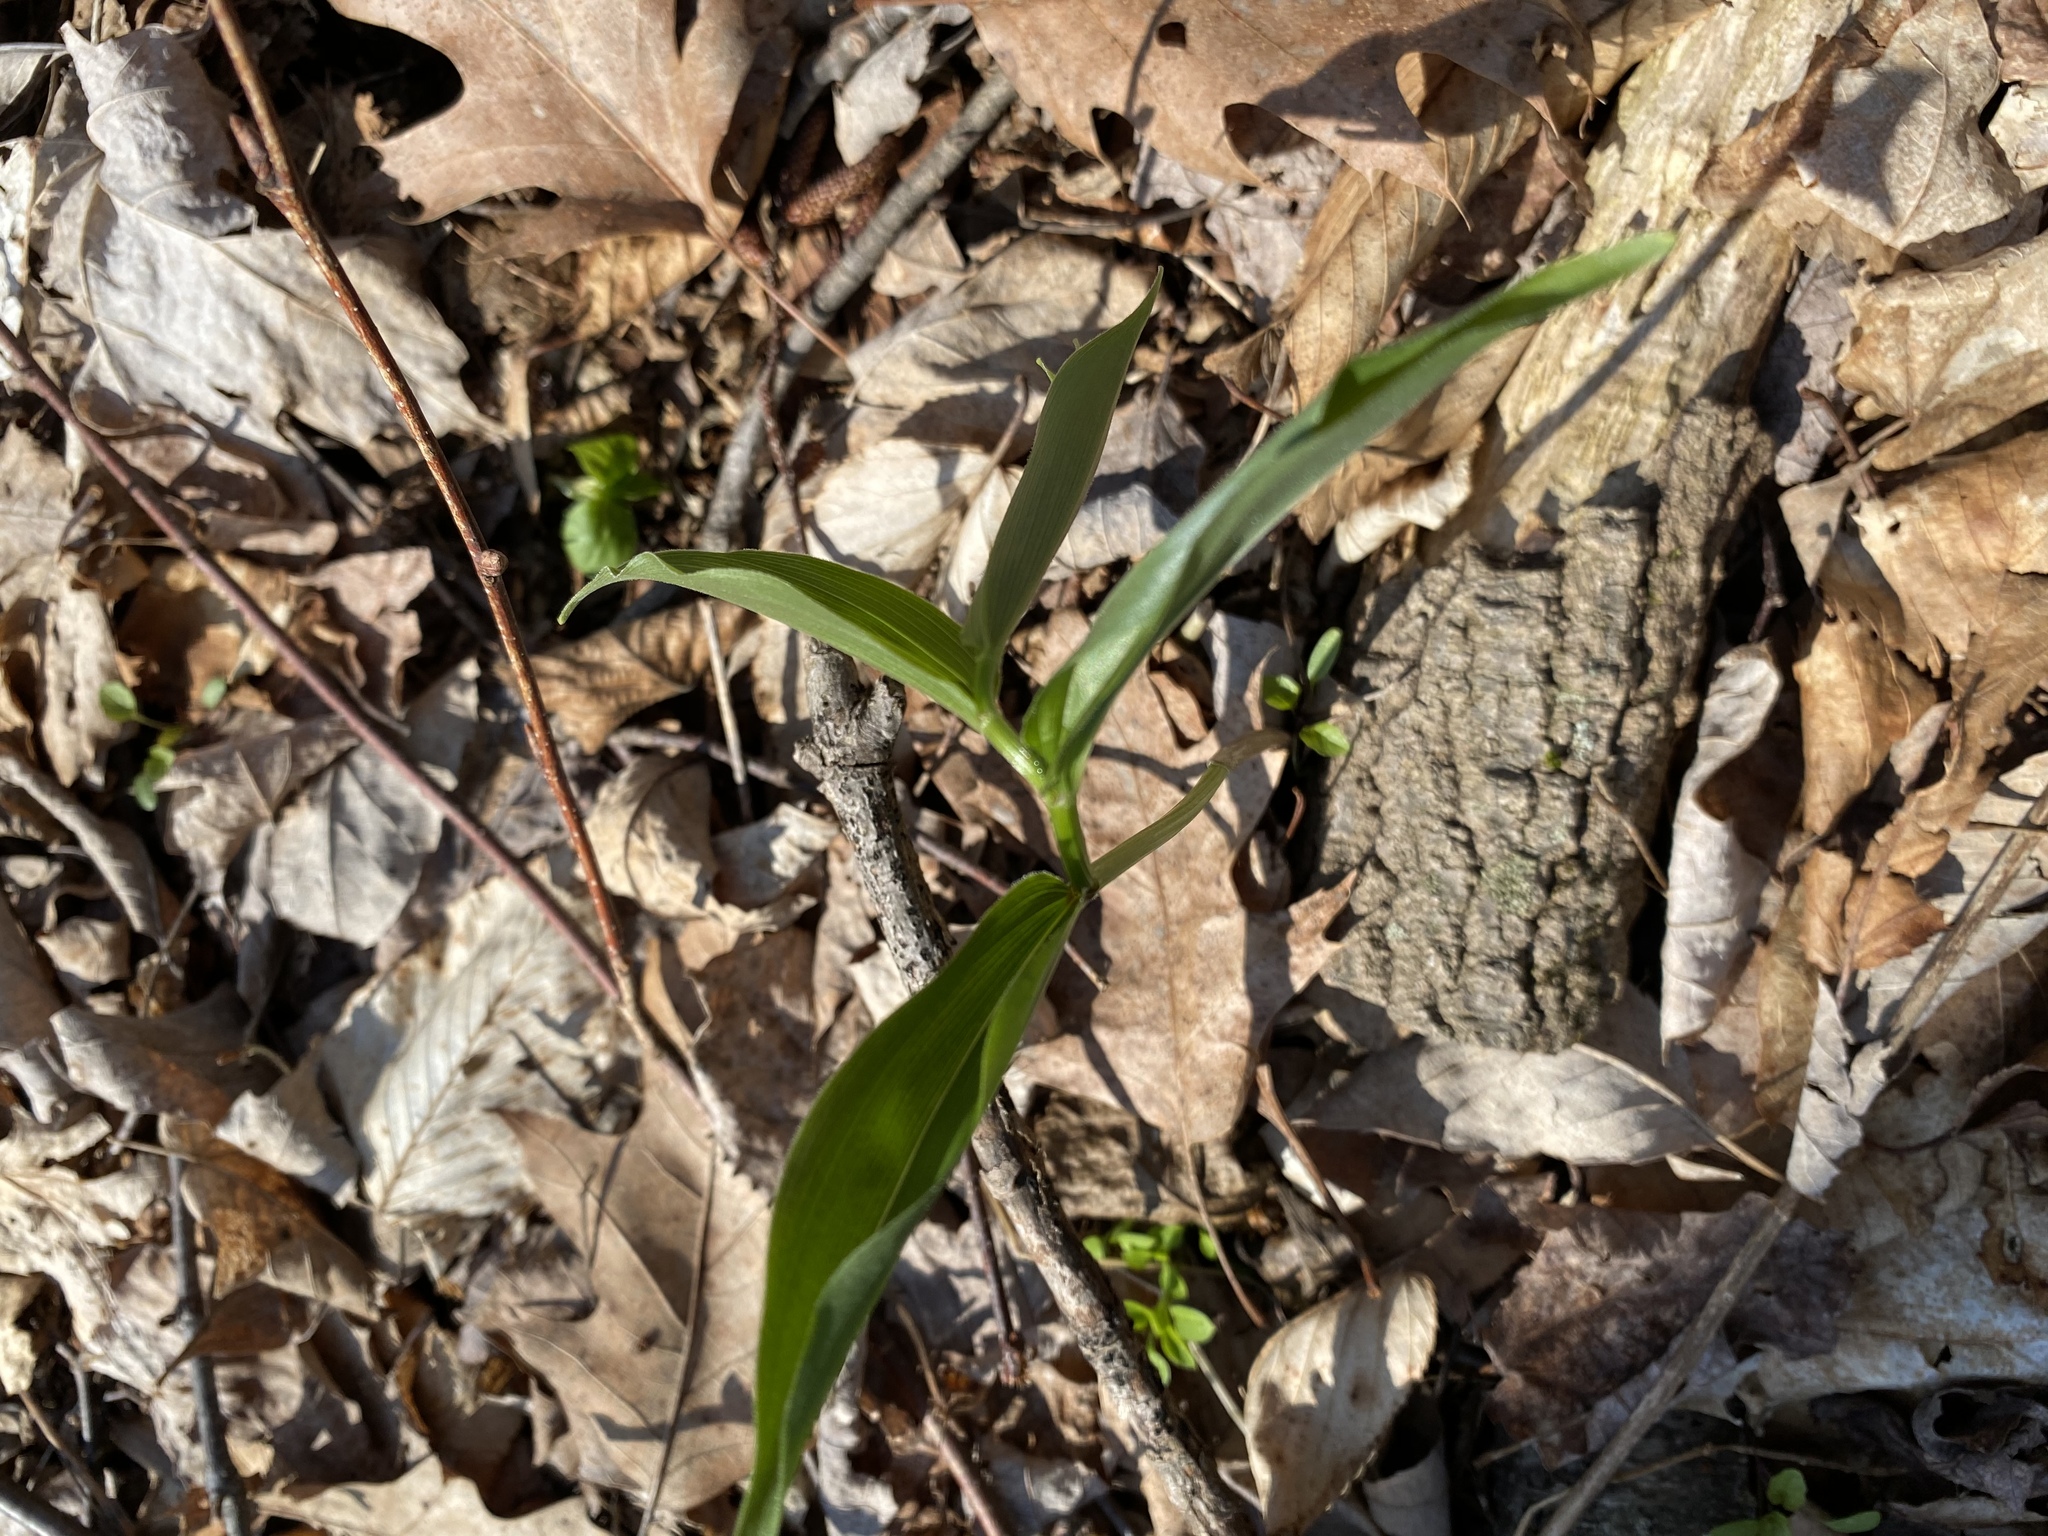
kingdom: Plantae
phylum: Tracheophyta
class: Liliopsida
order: Asparagales
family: Asparagaceae
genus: Maianthemum
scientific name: Maianthemum racemosum
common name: False spikenard
